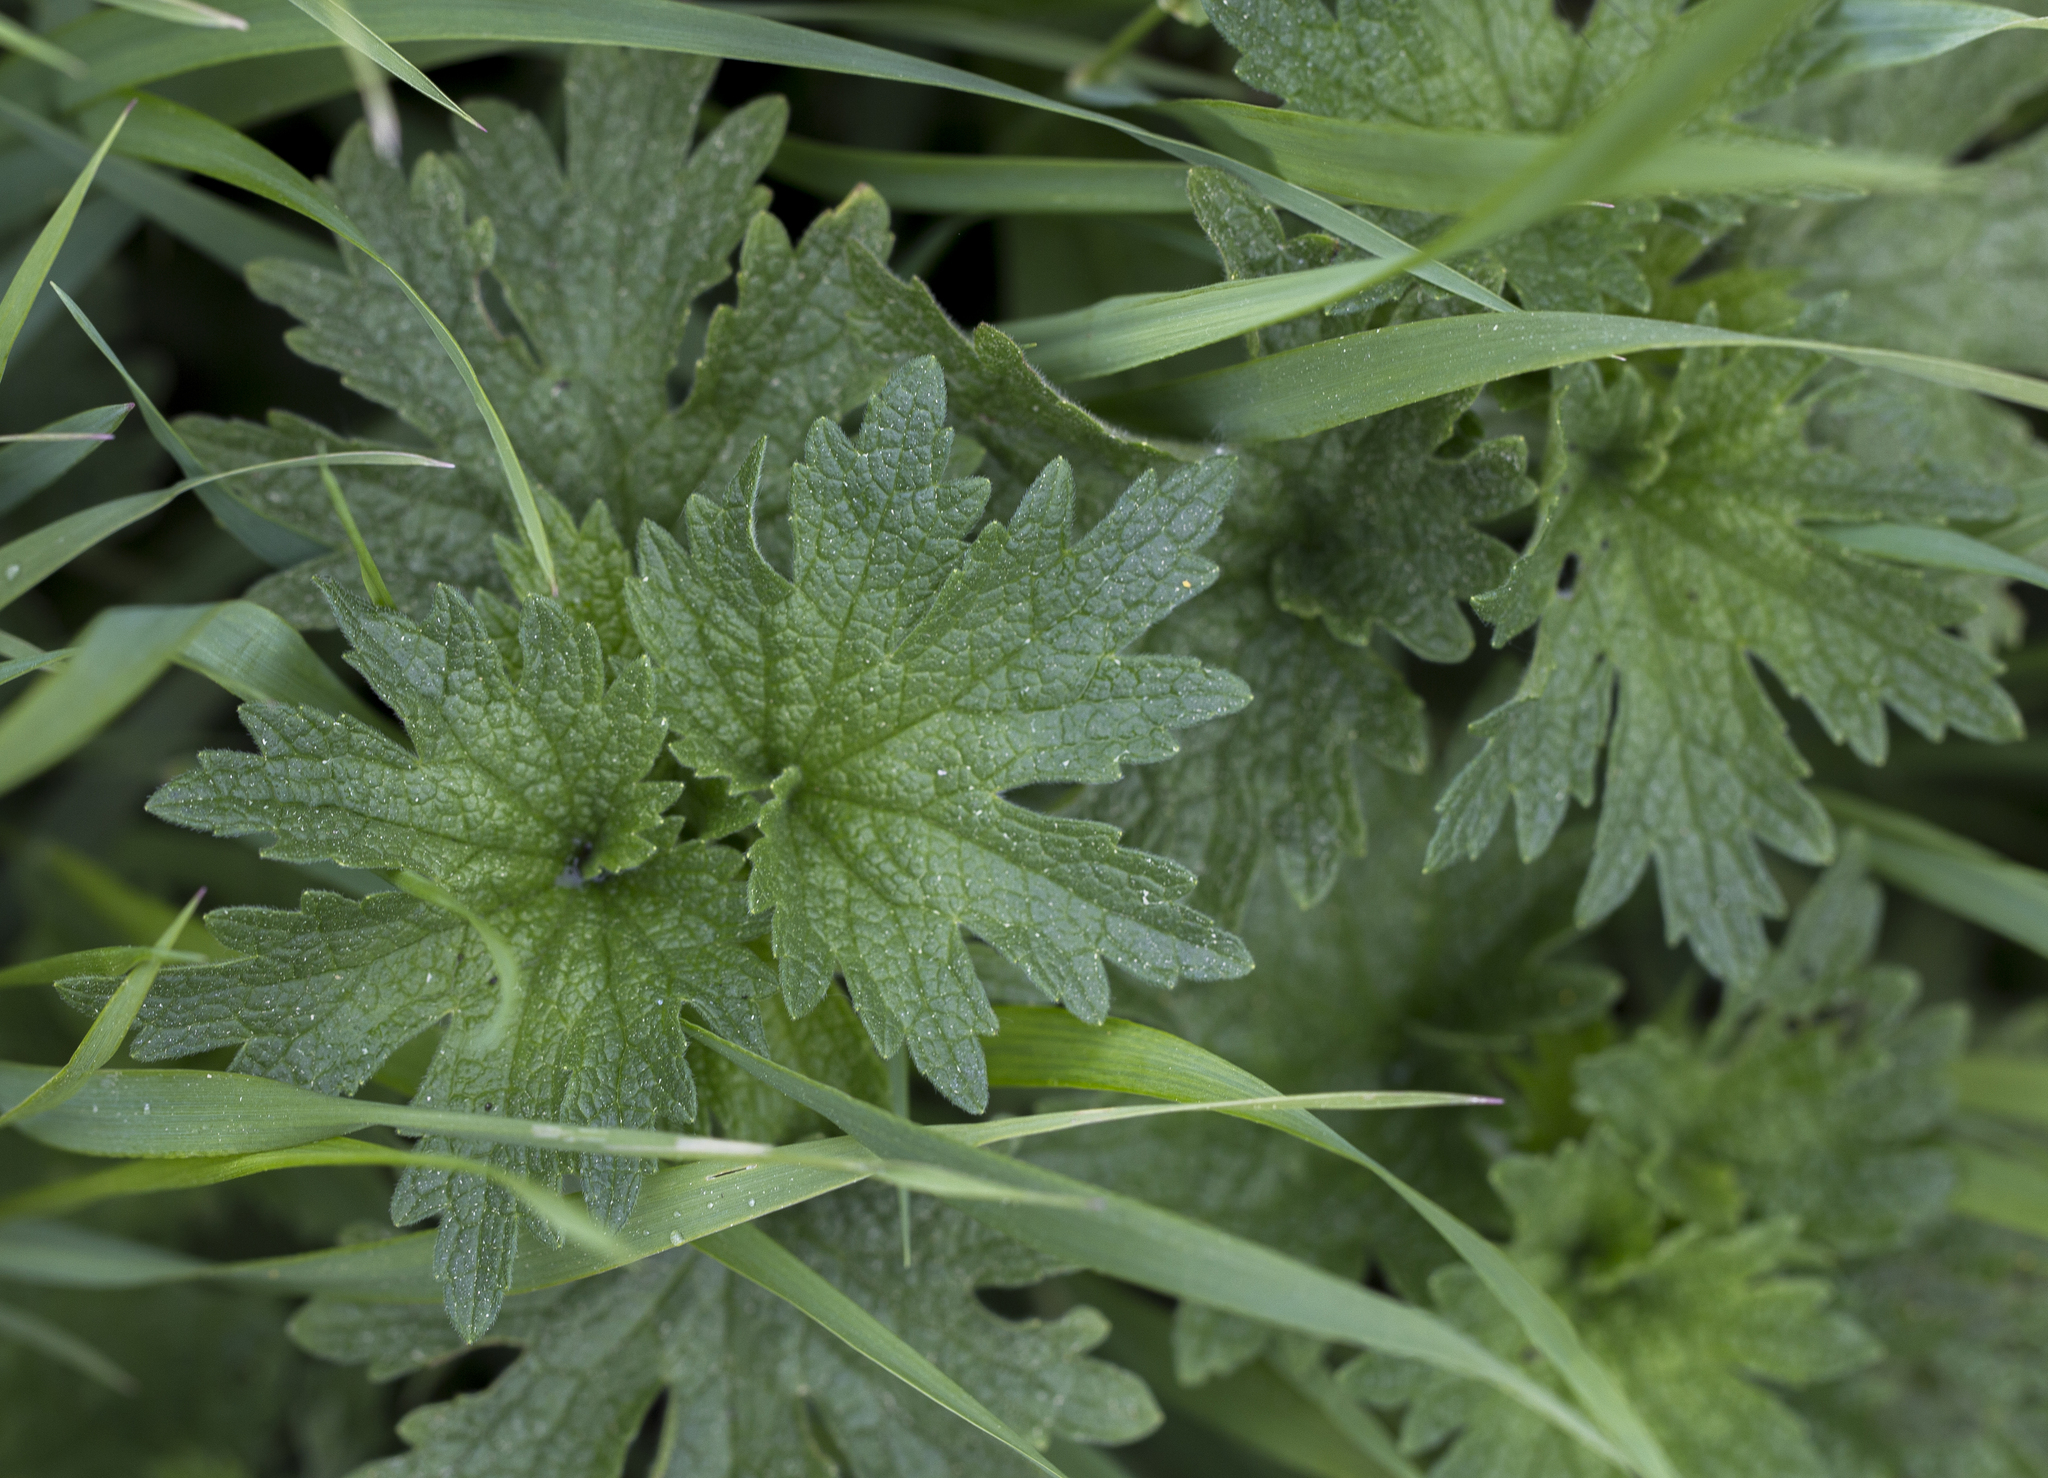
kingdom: Plantae
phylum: Tracheophyta
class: Magnoliopsida
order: Lamiales
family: Lamiaceae
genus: Leonurus
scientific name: Leonurus quinquelobatus
